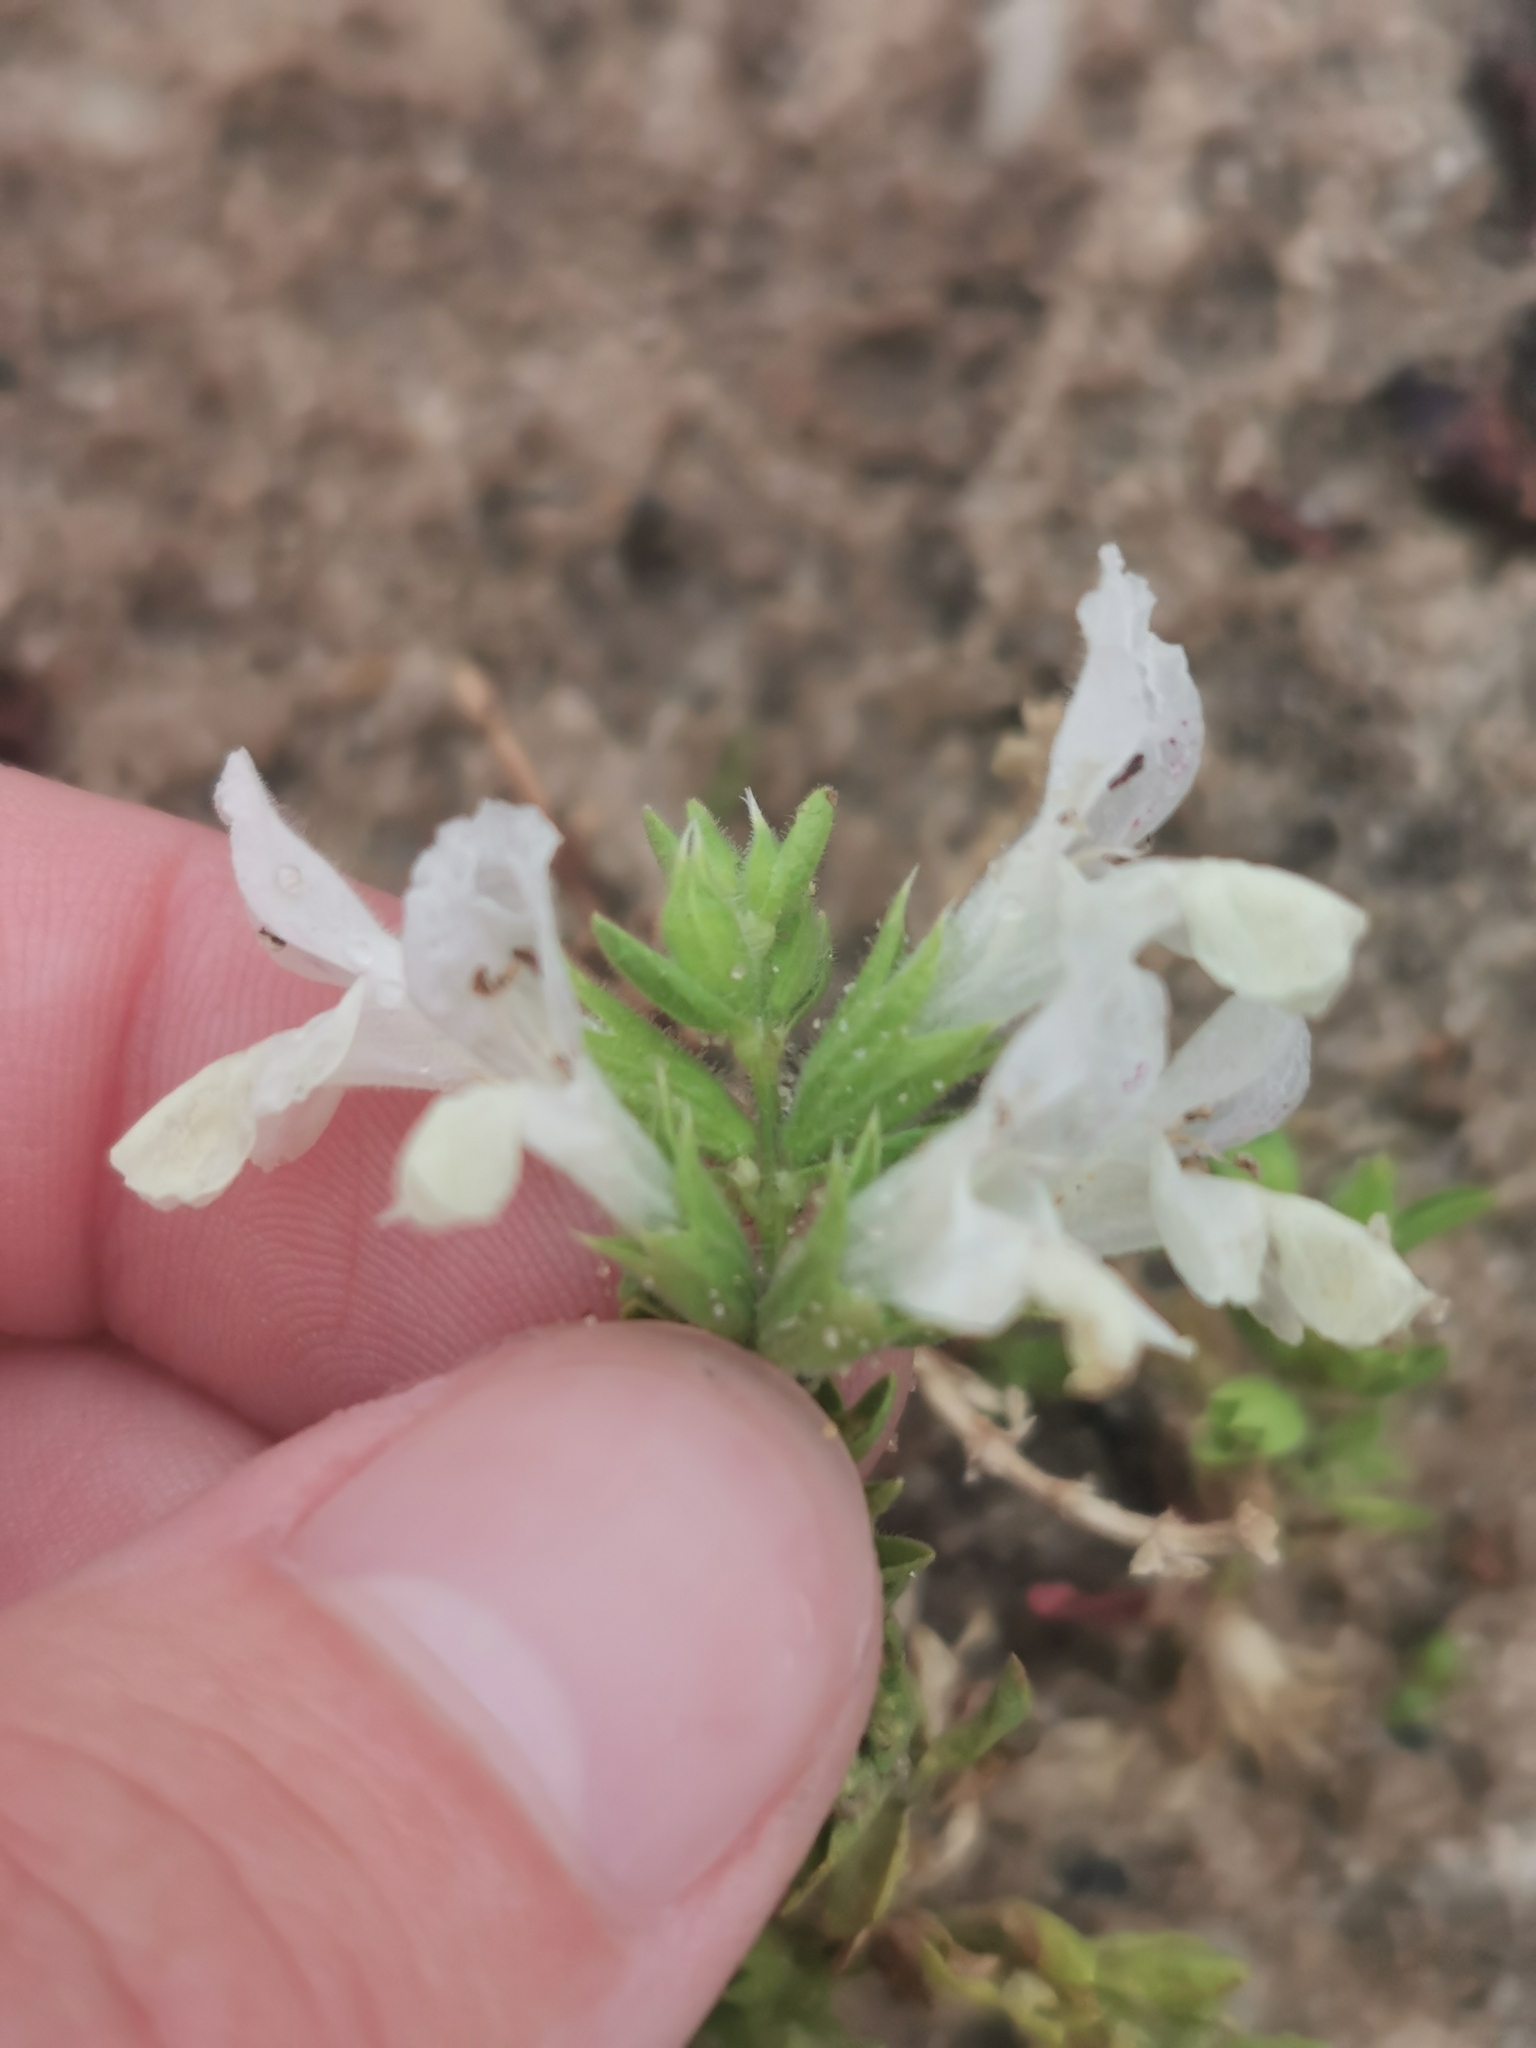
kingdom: Plantae
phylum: Tracheophyta
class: Magnoliopsida
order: Lamiales
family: Lamiaceae
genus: Stachys
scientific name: Stachys annua
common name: Annual yellow-woundwort
